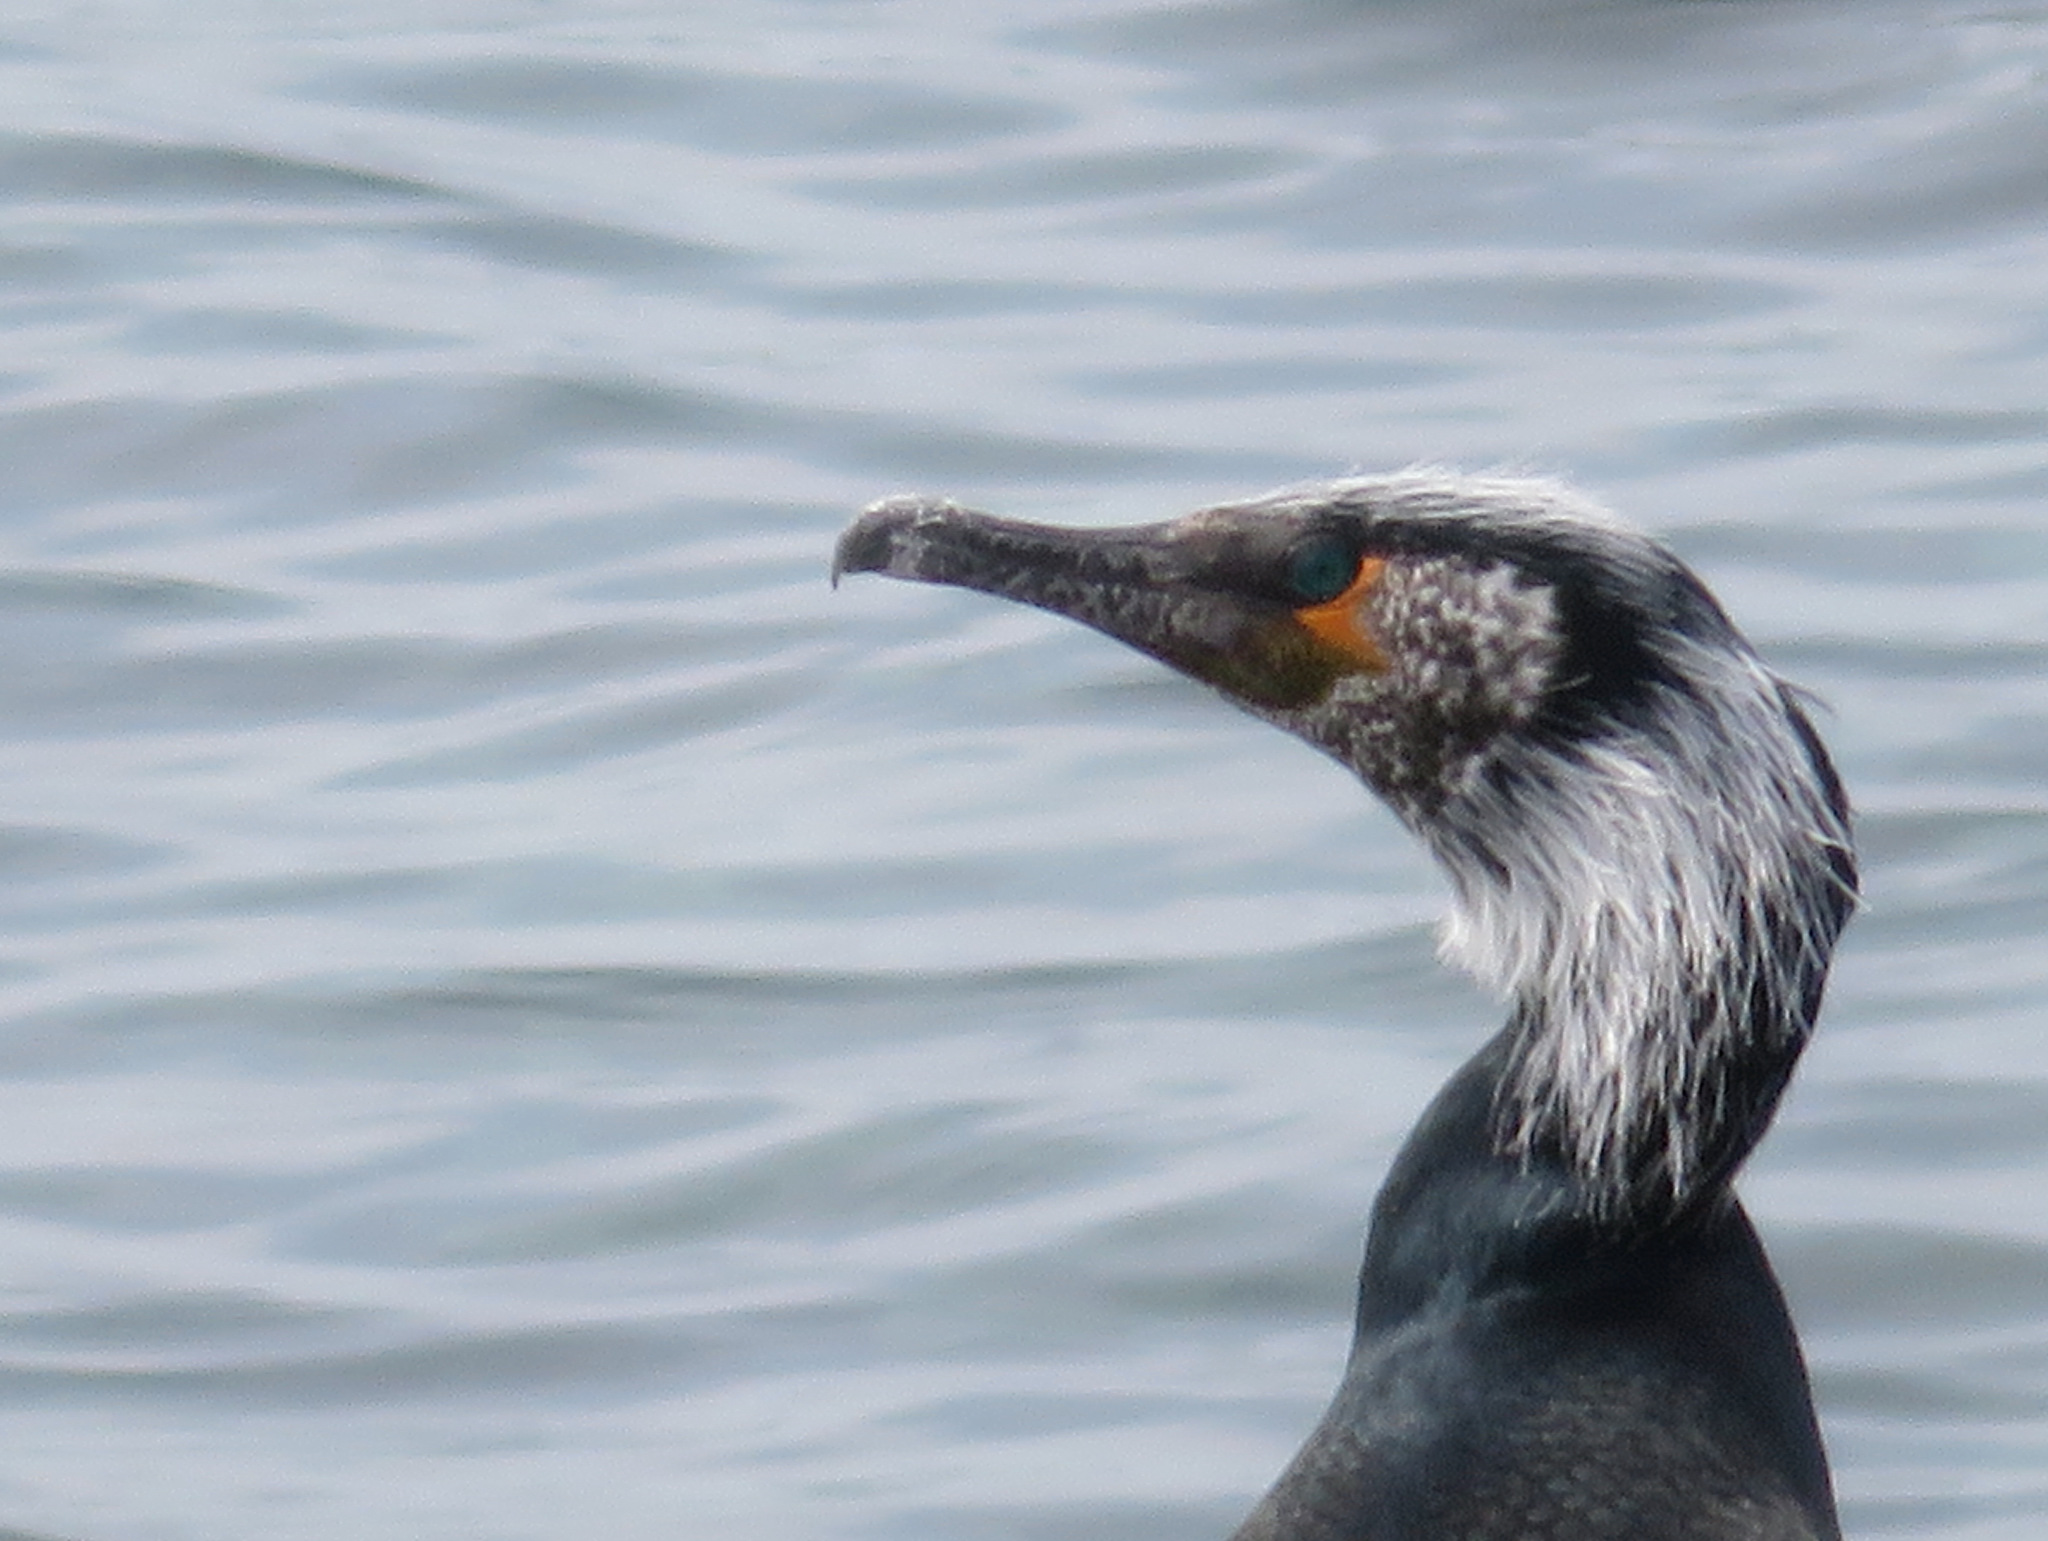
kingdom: Animalia
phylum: Chordata
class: Aves
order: Suliformes
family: Phalacrocoracidae
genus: Phalacrocorax
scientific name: Phalacrocorax capillatus
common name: Japanese cormorant
